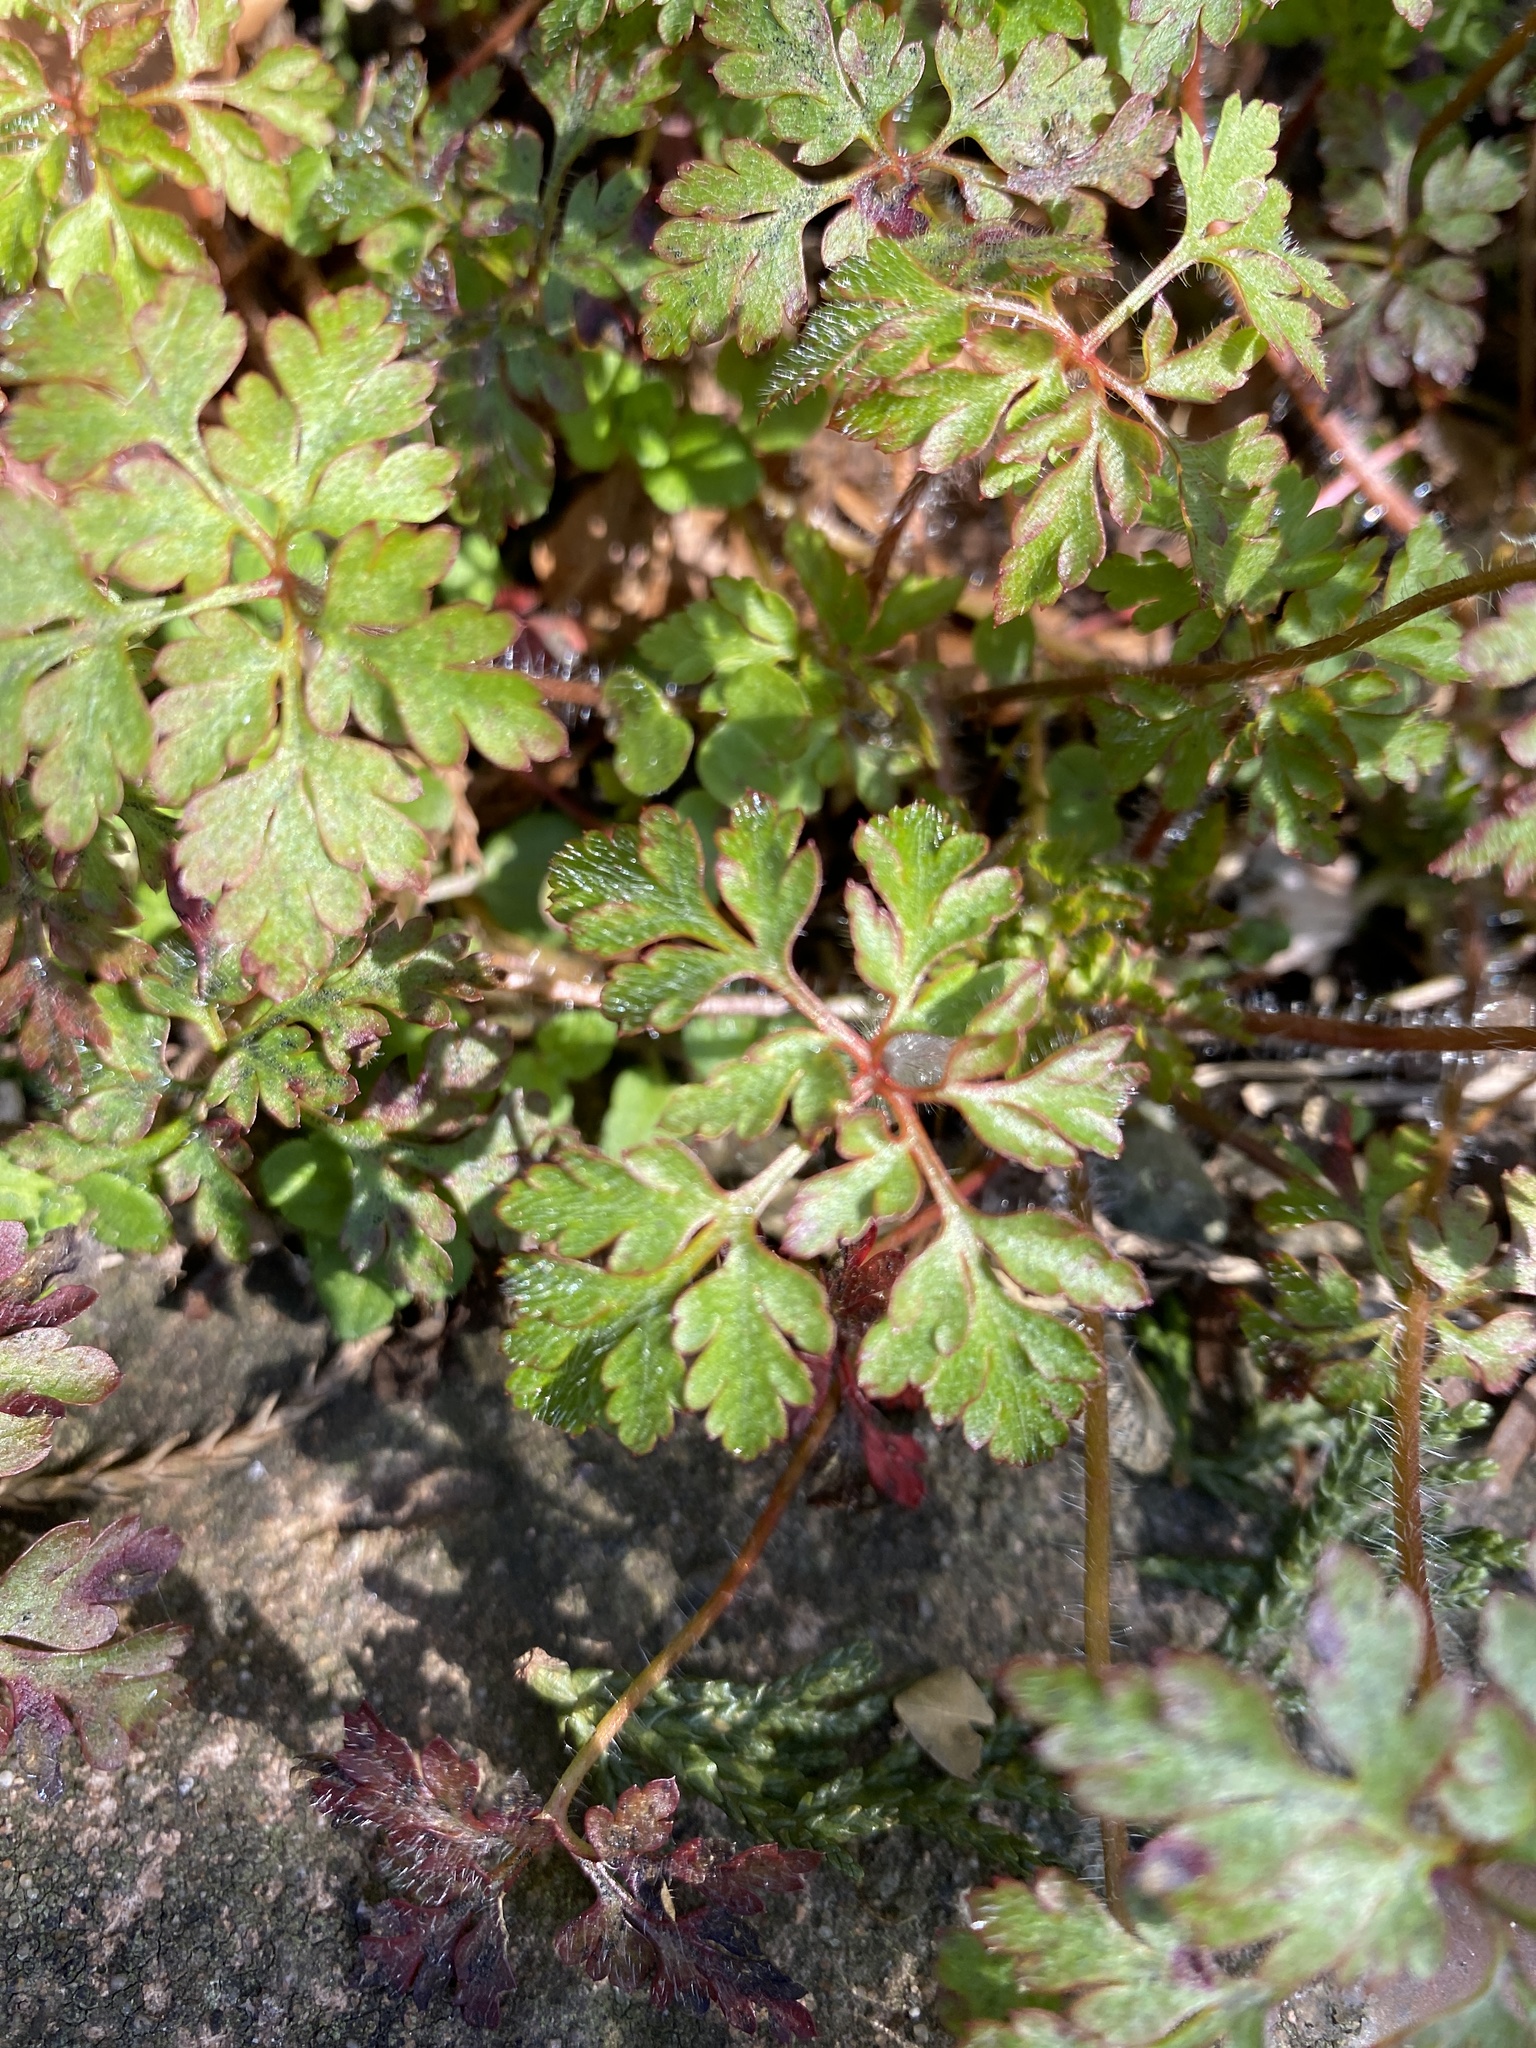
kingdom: Plantae
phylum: Tracheophyta
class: Magnoliopsida
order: Geraniales
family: Geraniaceae
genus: Geranium
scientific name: Geranium robertianum
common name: Herb-robert
